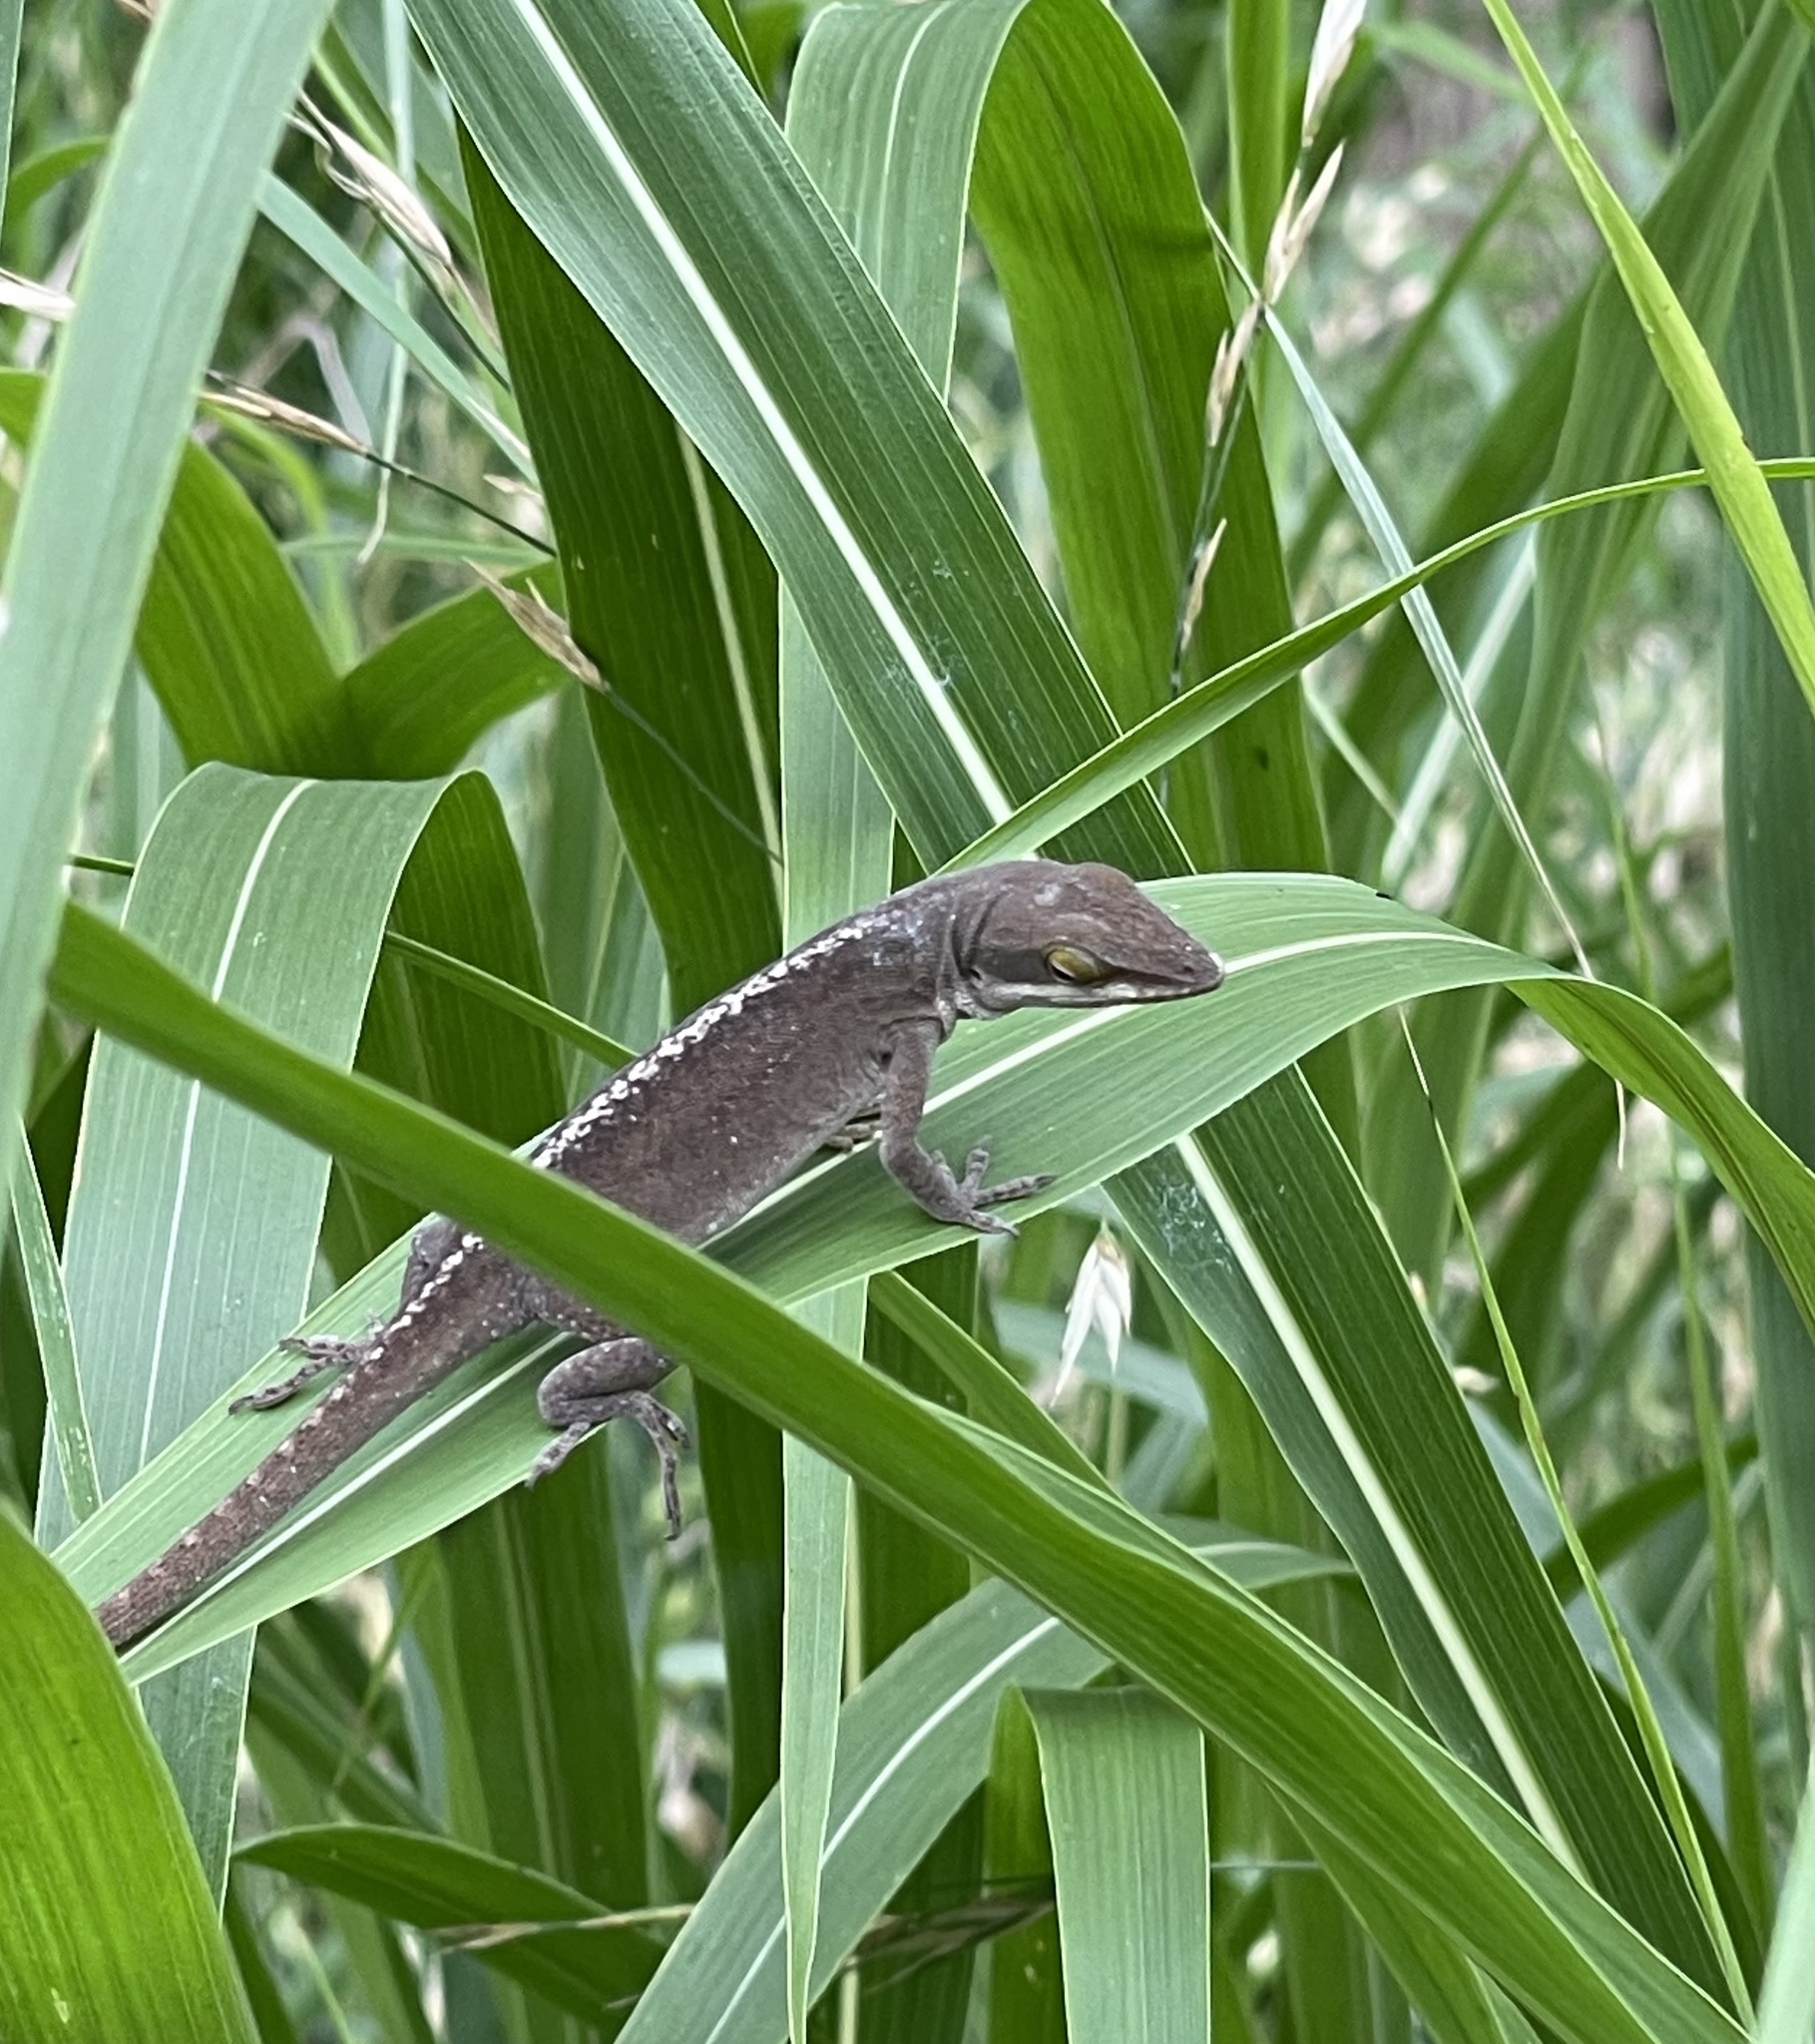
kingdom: Animalia
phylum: Chordata
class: Squamata
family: Dactyloidae
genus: Anolis
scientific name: Anolis carolinensis
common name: Green anole
